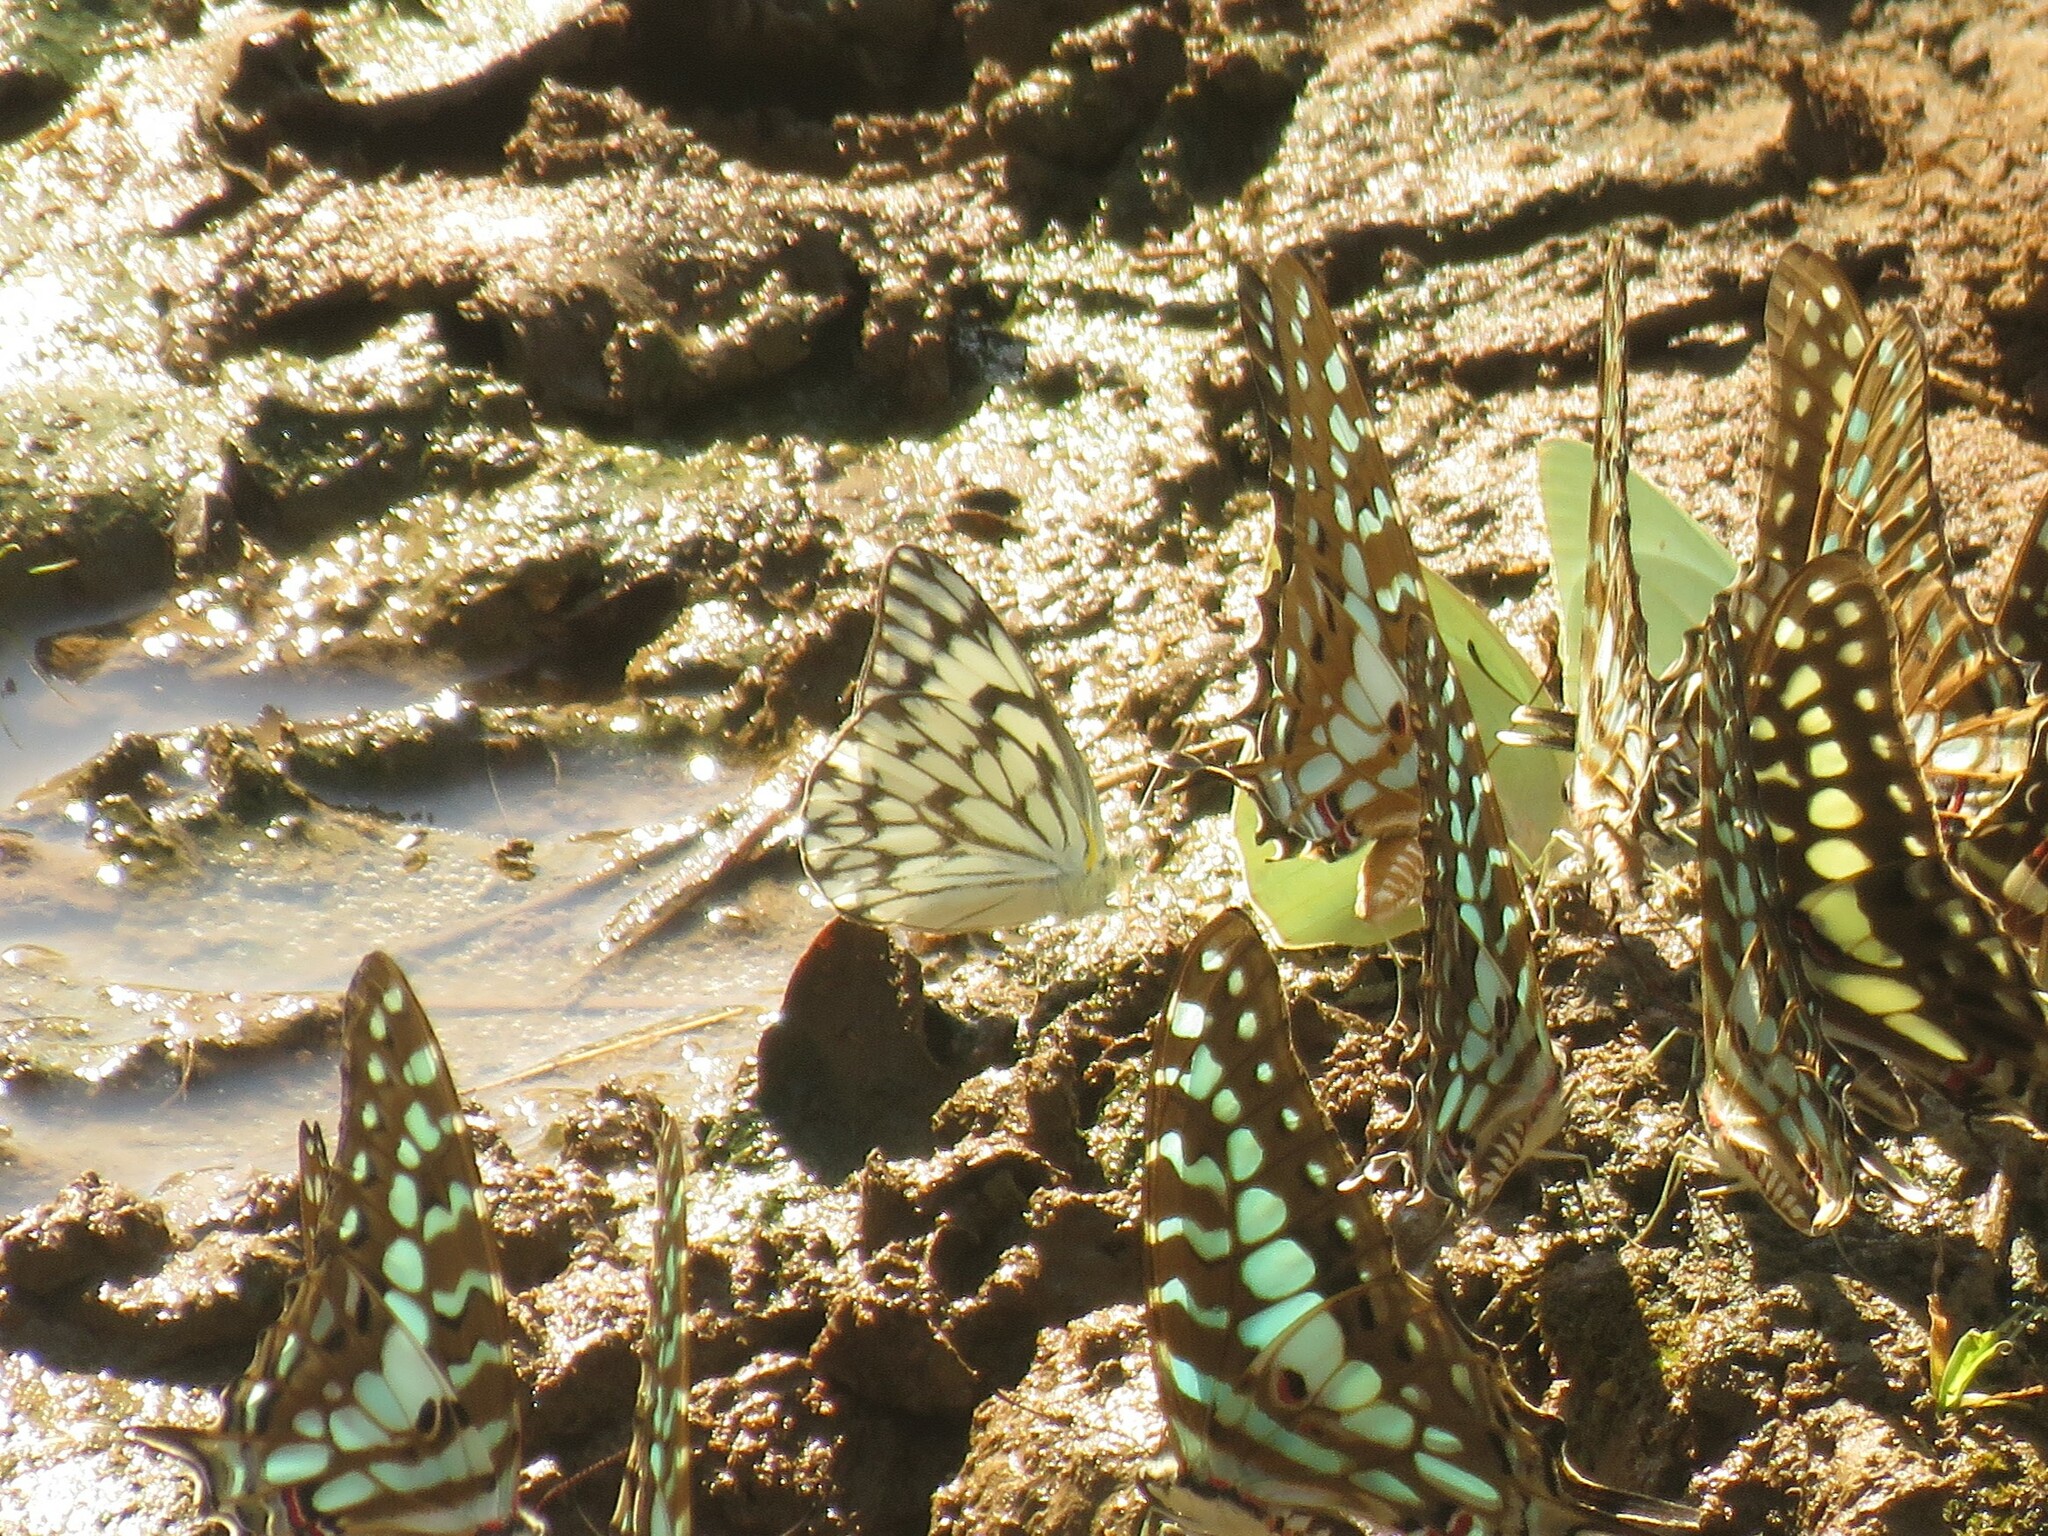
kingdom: Animalia
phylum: Arthropoda
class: Insecta
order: Lepidoptera
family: Pieridae
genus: Belenois
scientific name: Belenois gidica
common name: Pointed caper white
